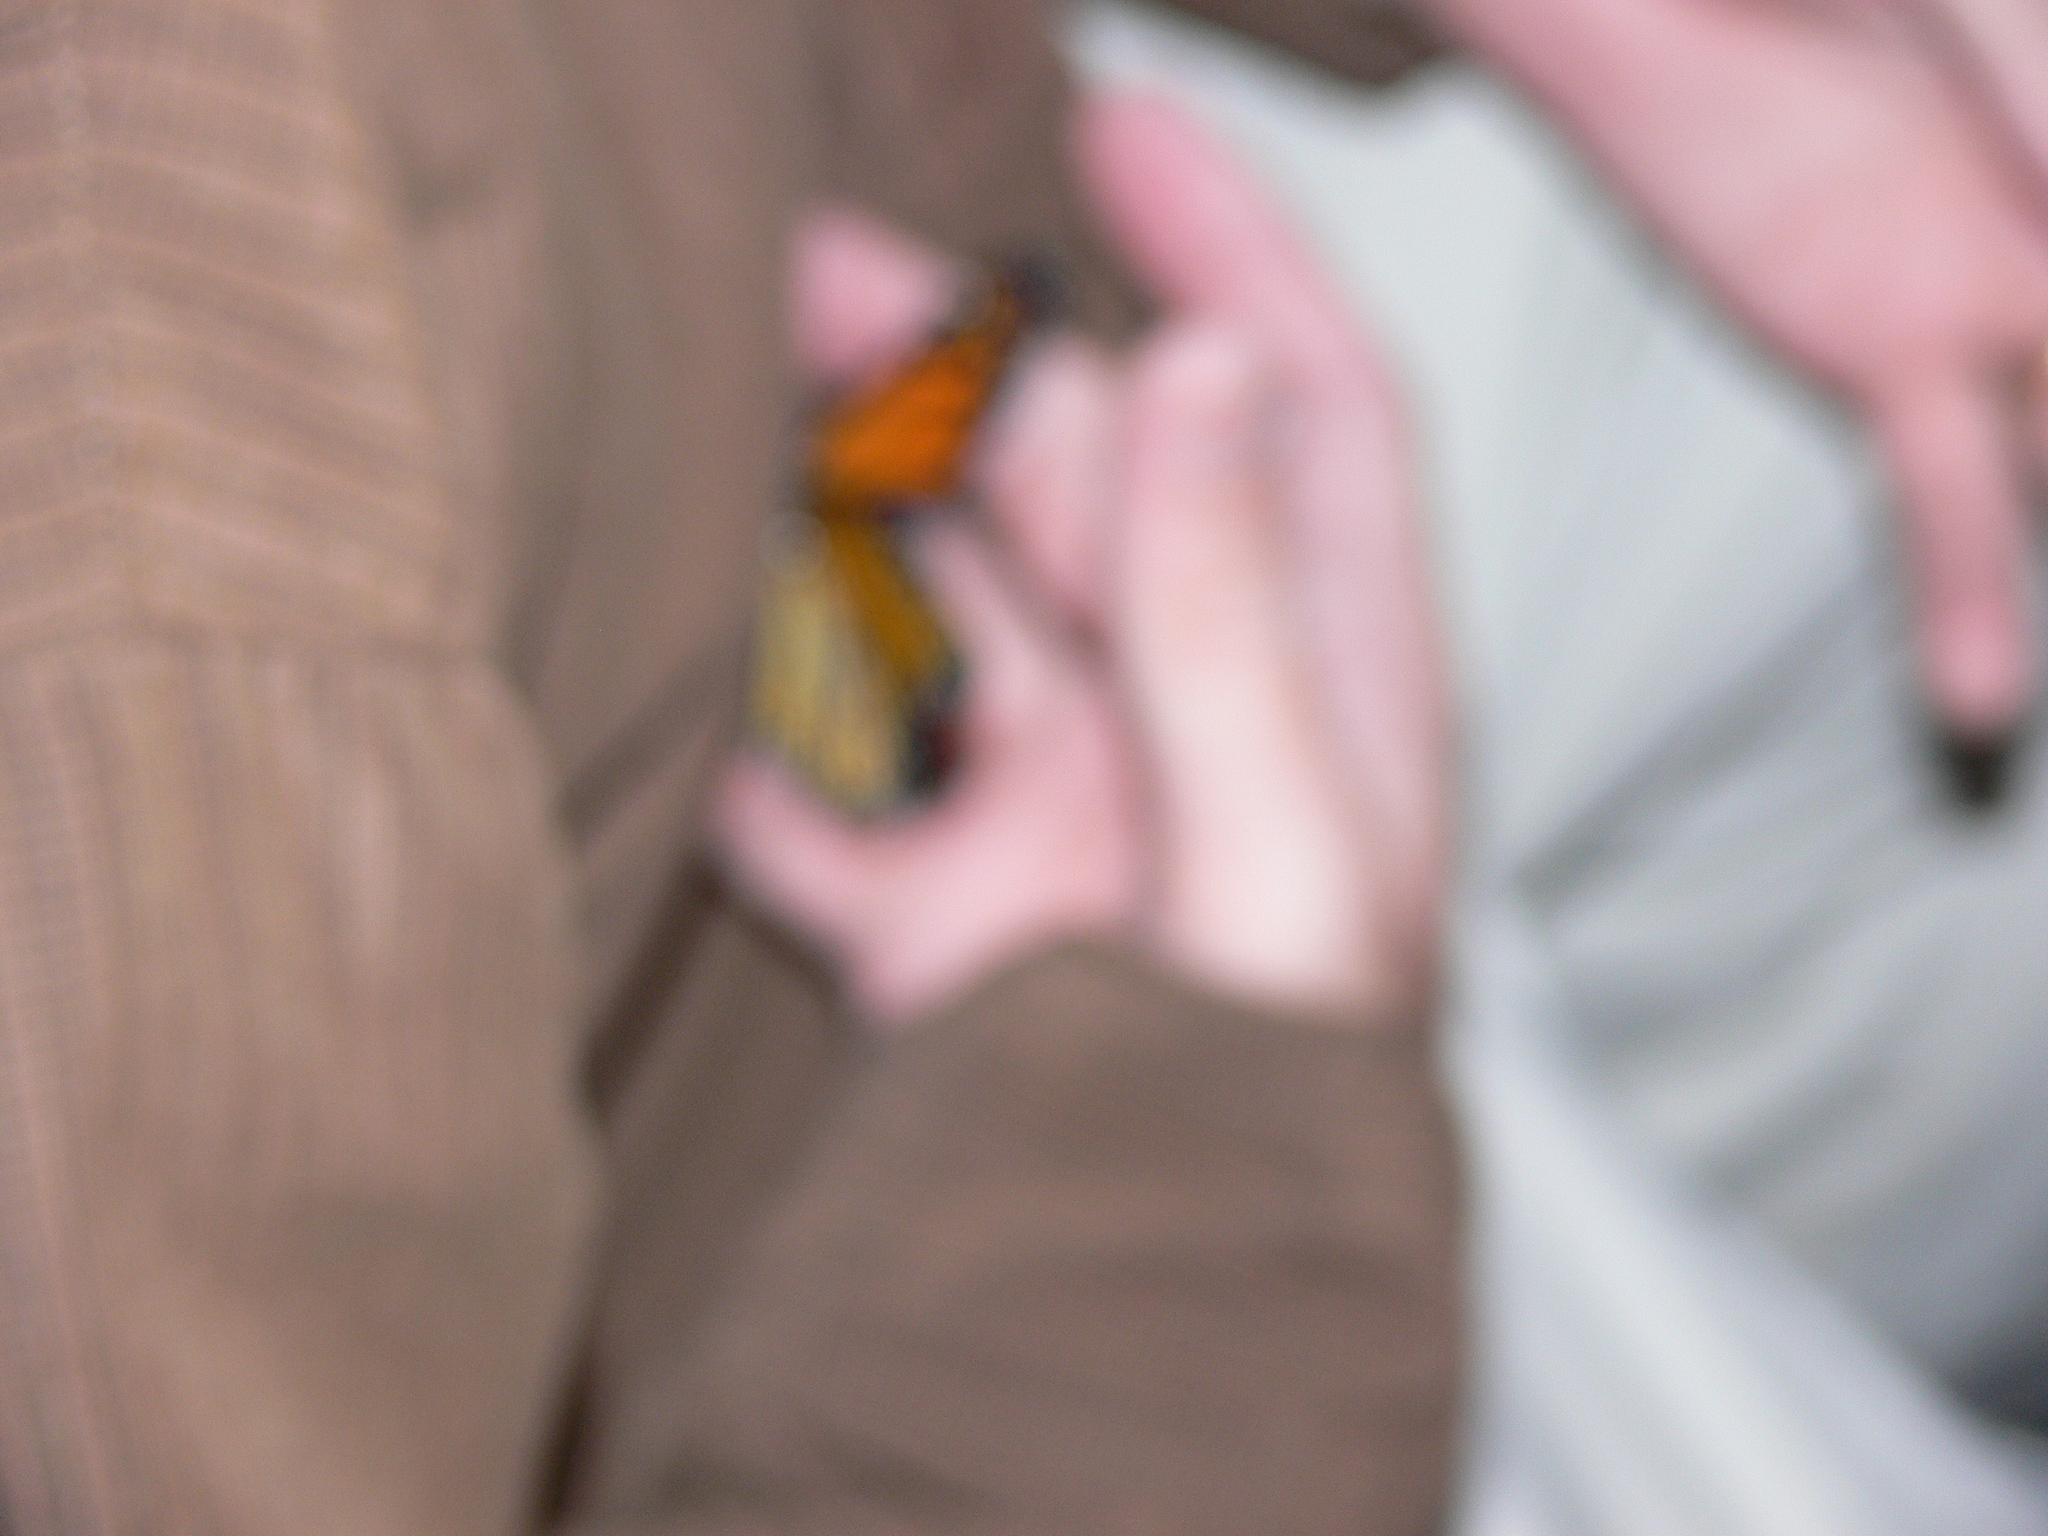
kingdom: Animalia
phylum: Arthropoda
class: Insecta
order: Lepidoptera
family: Nymphalidae
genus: Danaus
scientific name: Danaus plexippus
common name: Monarch
